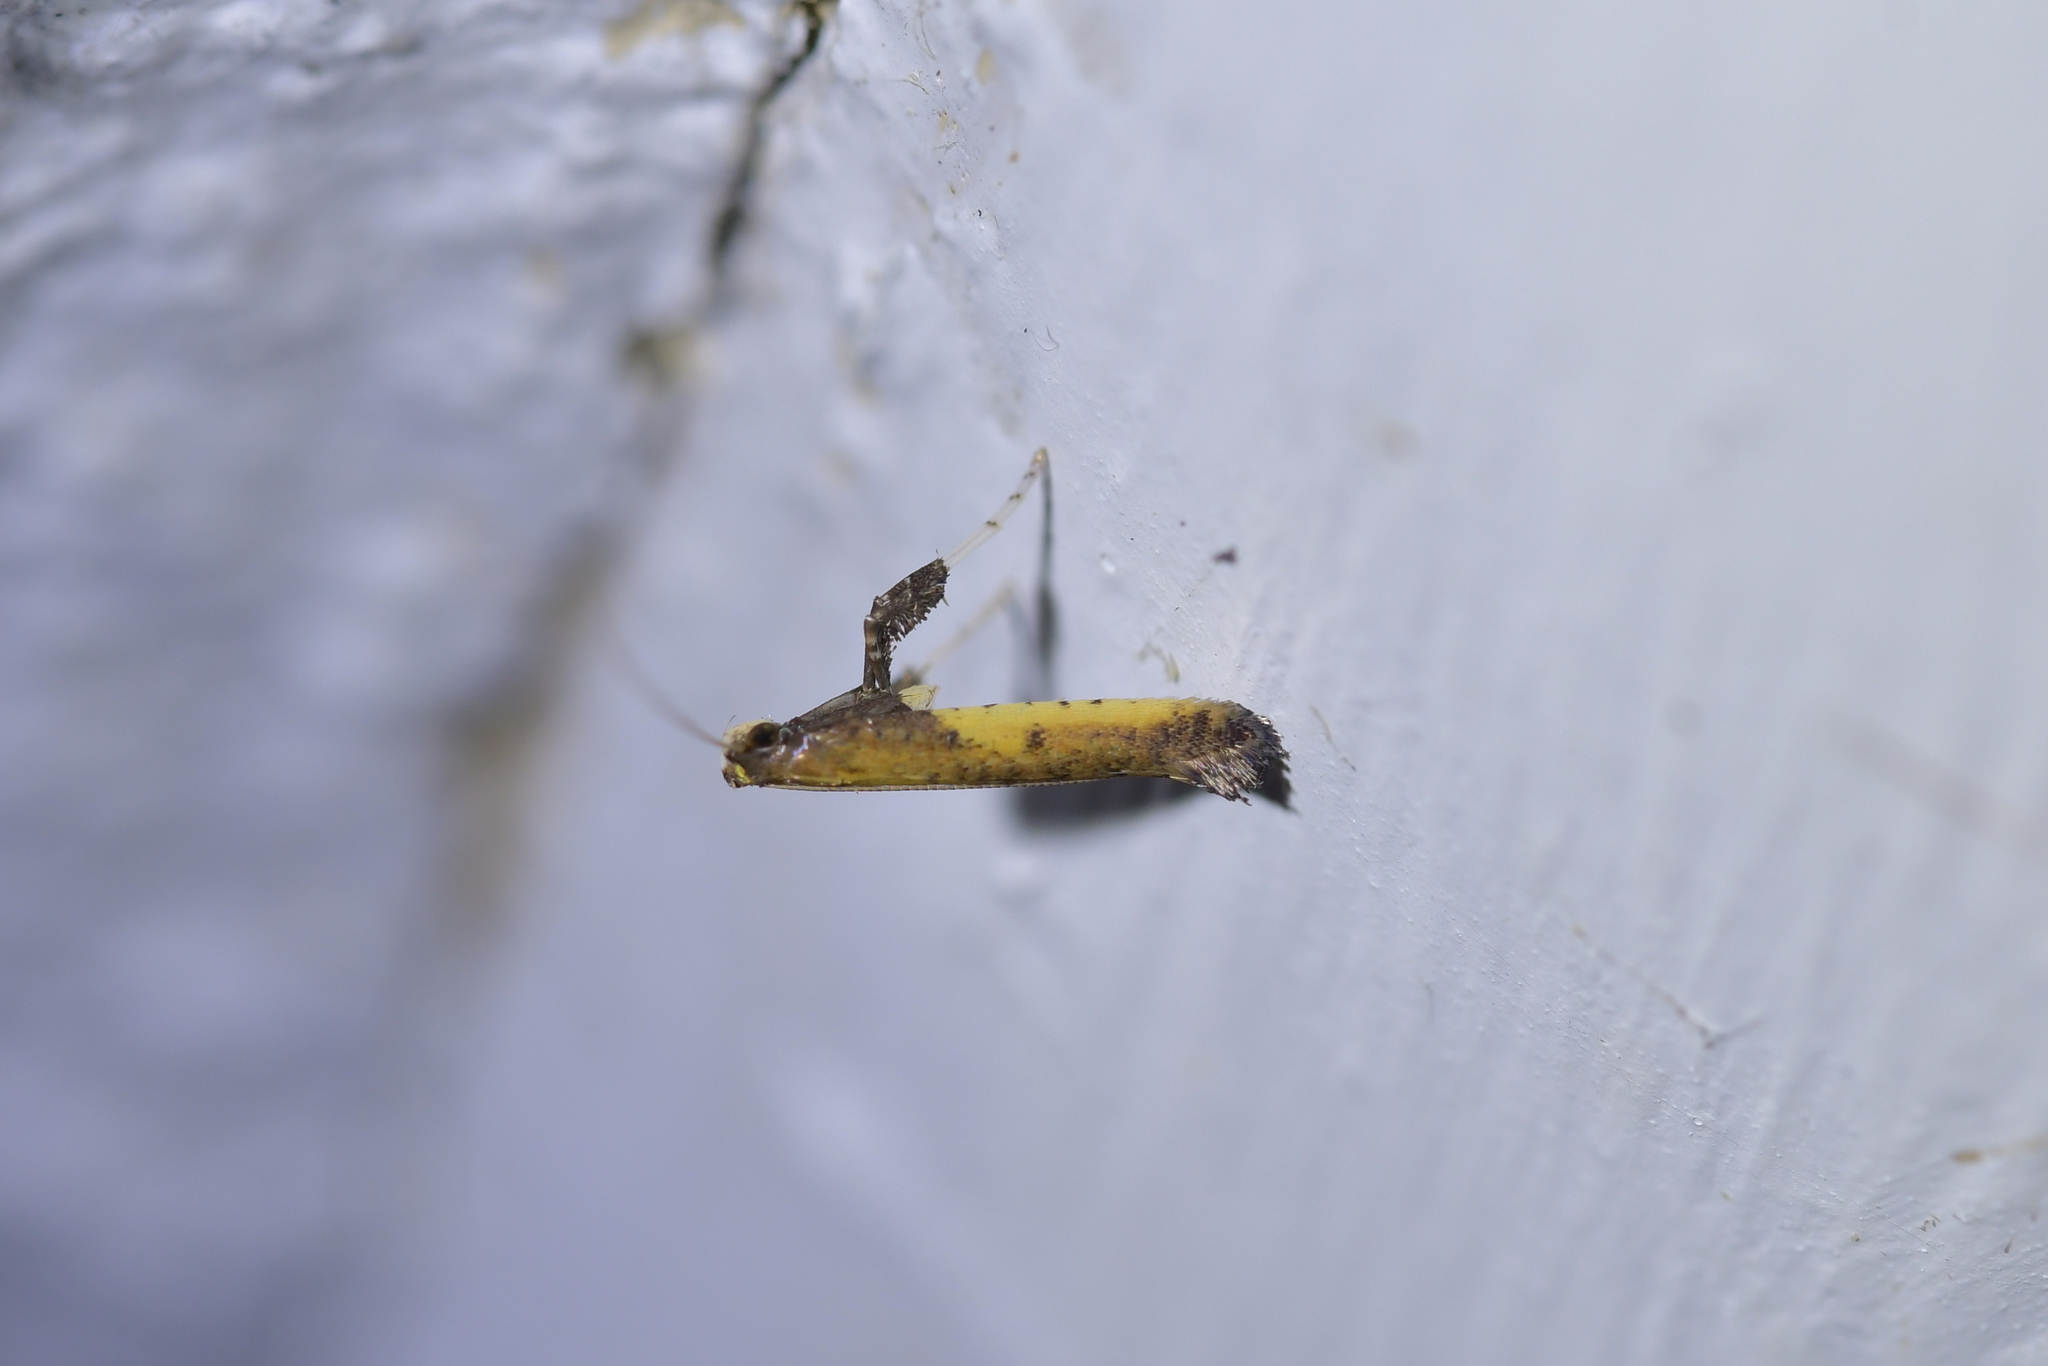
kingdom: Animalia
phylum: Arthropoda
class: Insecta
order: Lepidoptera
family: Gracillariidae
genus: Caloptilia
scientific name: Caloptilia azaleella
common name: Azalea leafminer
